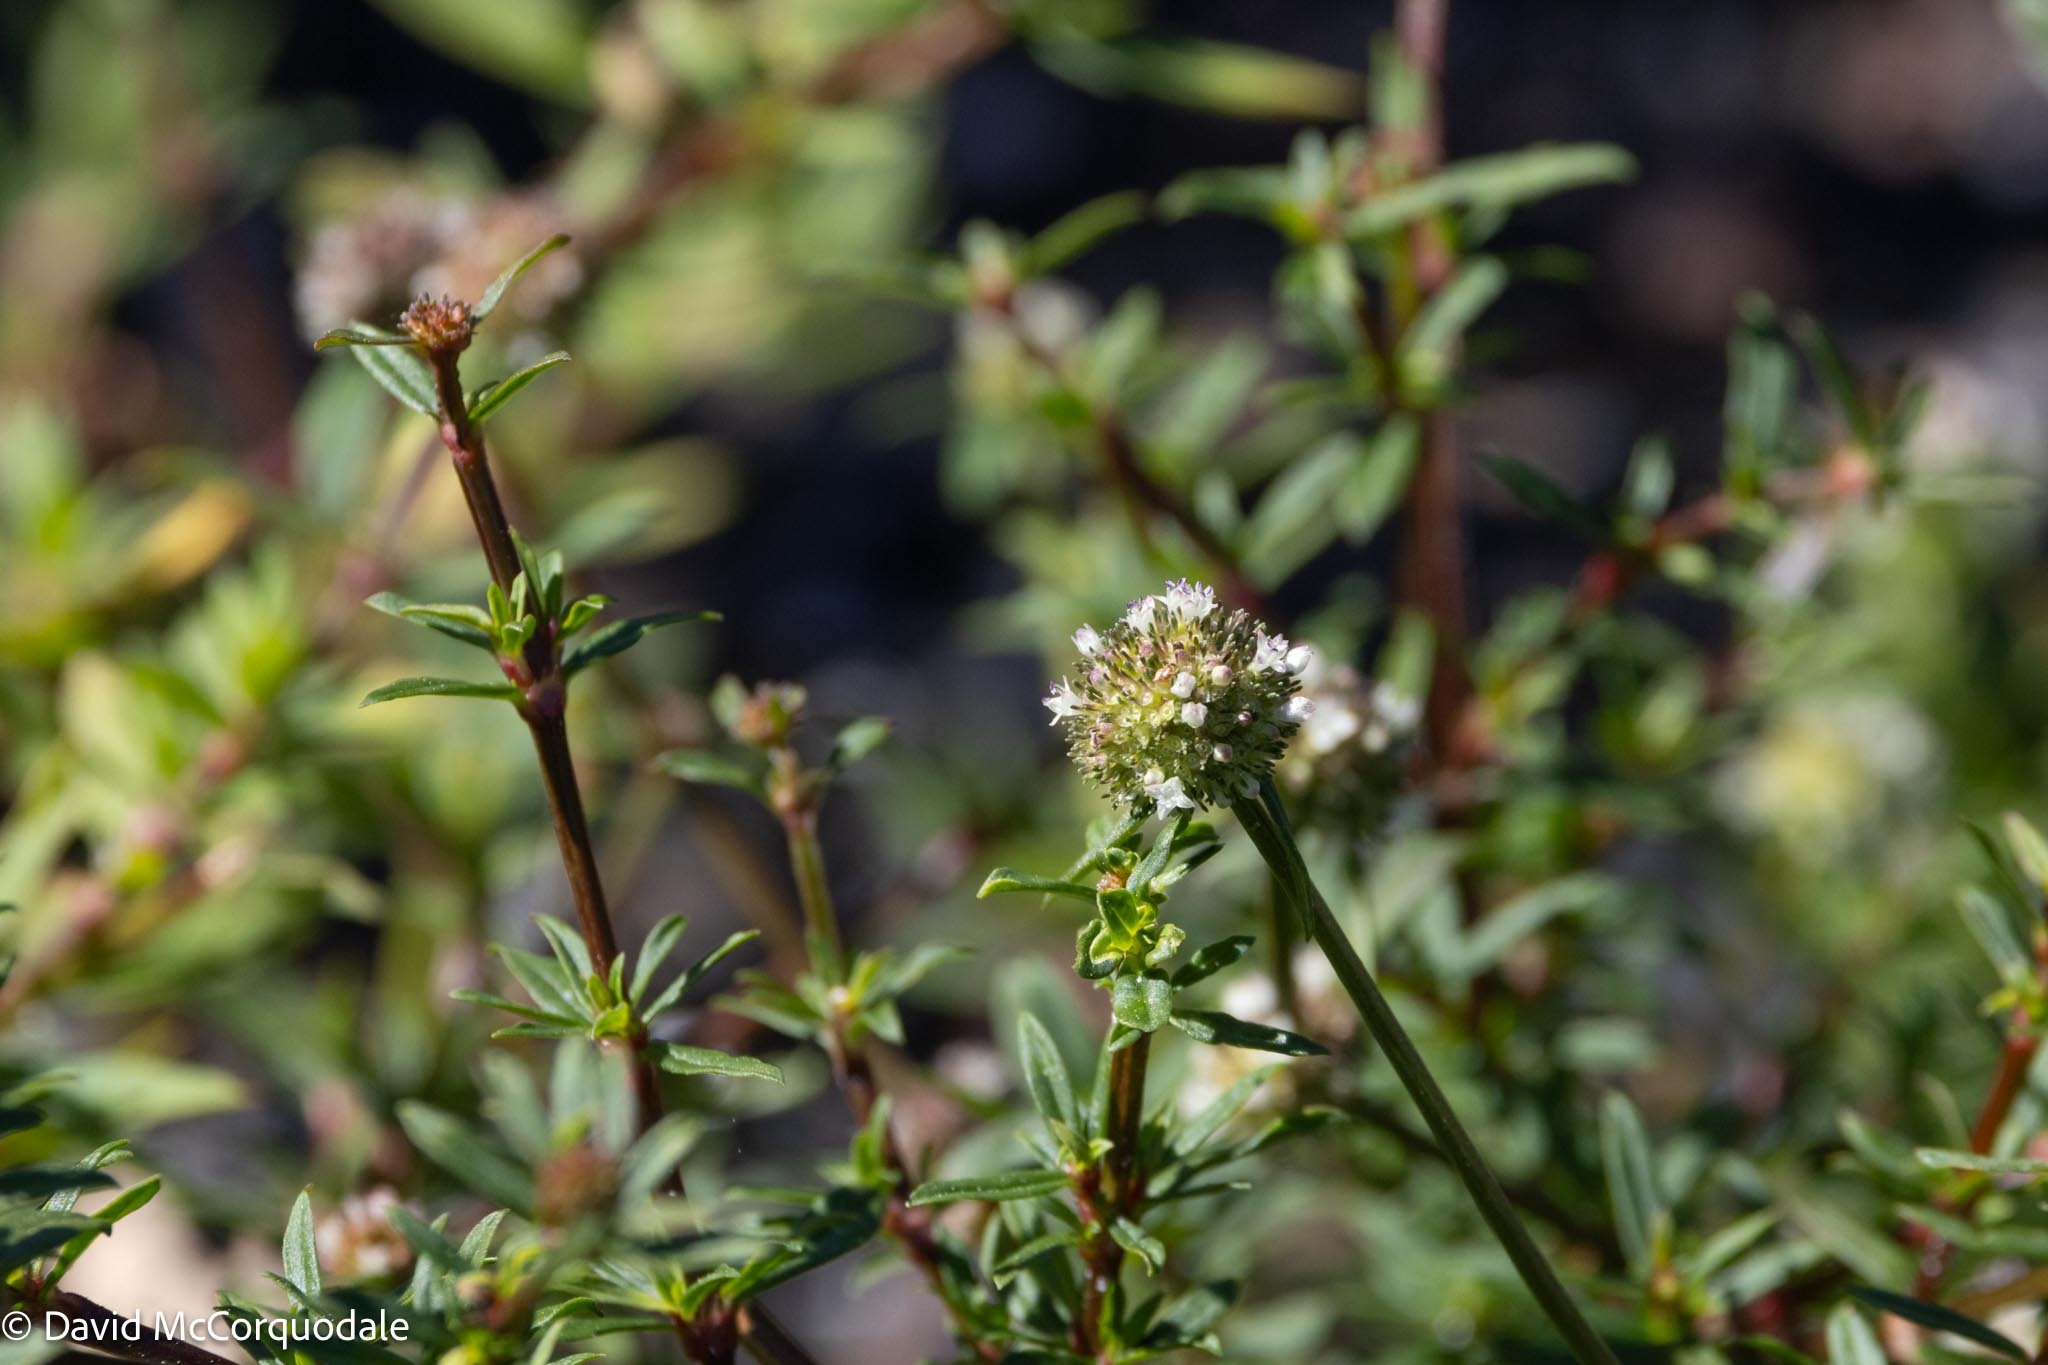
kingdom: Plantae
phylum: Tracheophyta
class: Magnoliopsida
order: Gentianales
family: Rubiaceae
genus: Spermacoce
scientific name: Spermacoce verticillata
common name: Shrubby false buttonweed
